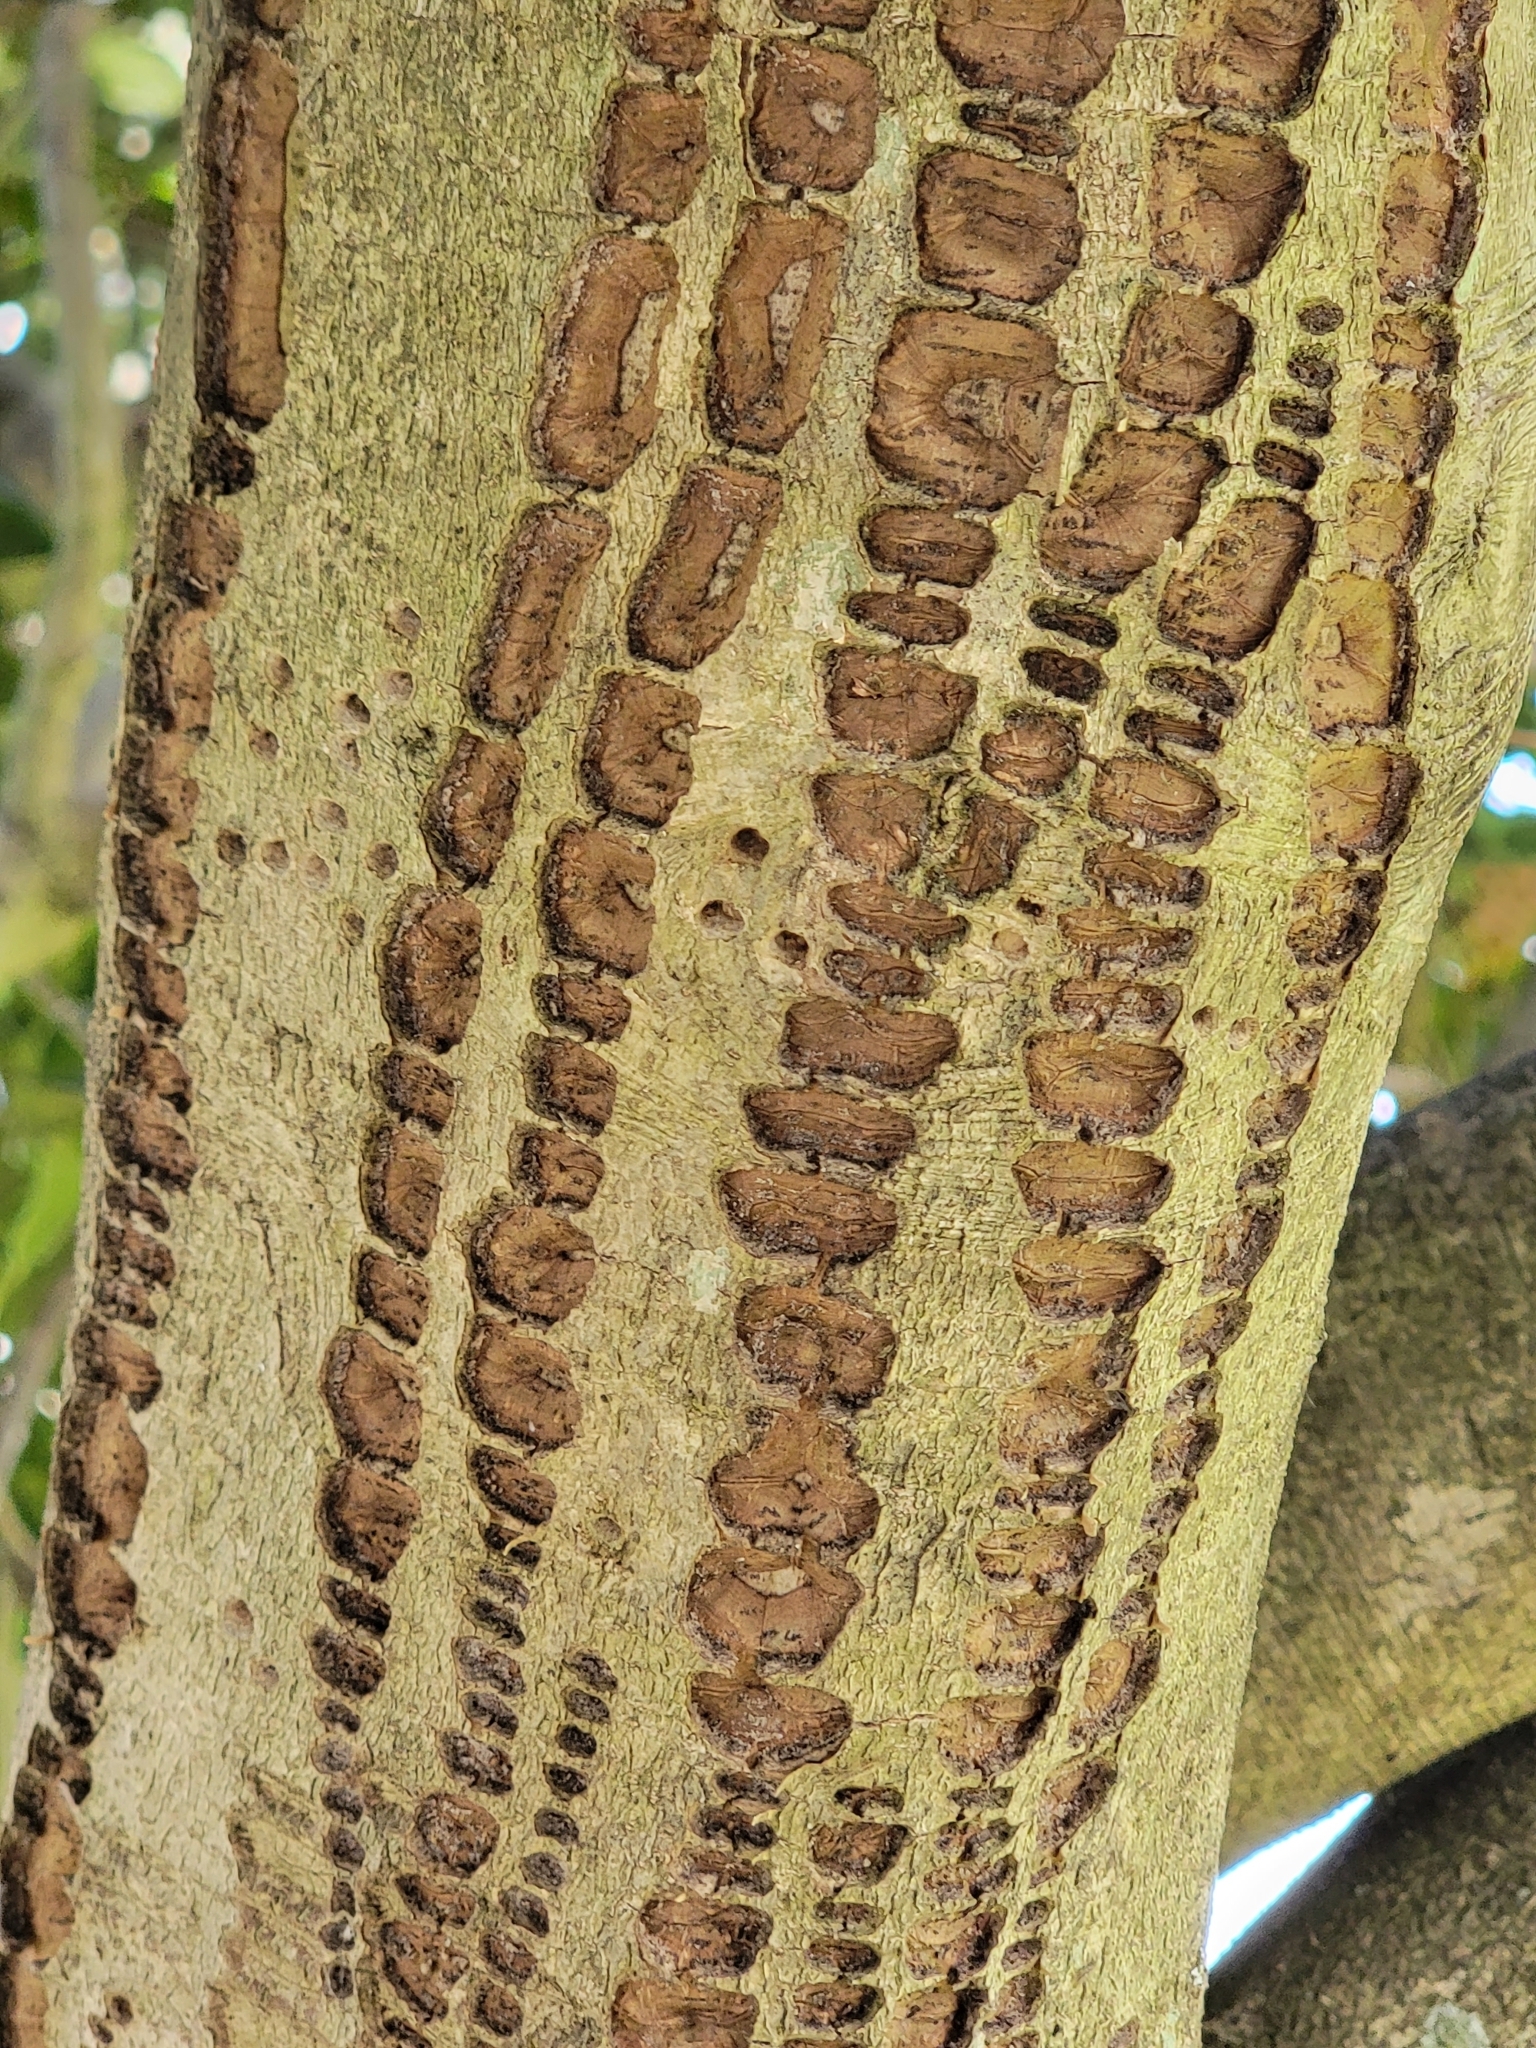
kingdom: Animalia
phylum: Chordata
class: Aves
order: Piciformes
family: Picidae
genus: Sphyrapicus
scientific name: Sphyrapicus varius
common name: Yellow-bellied sapsucker
